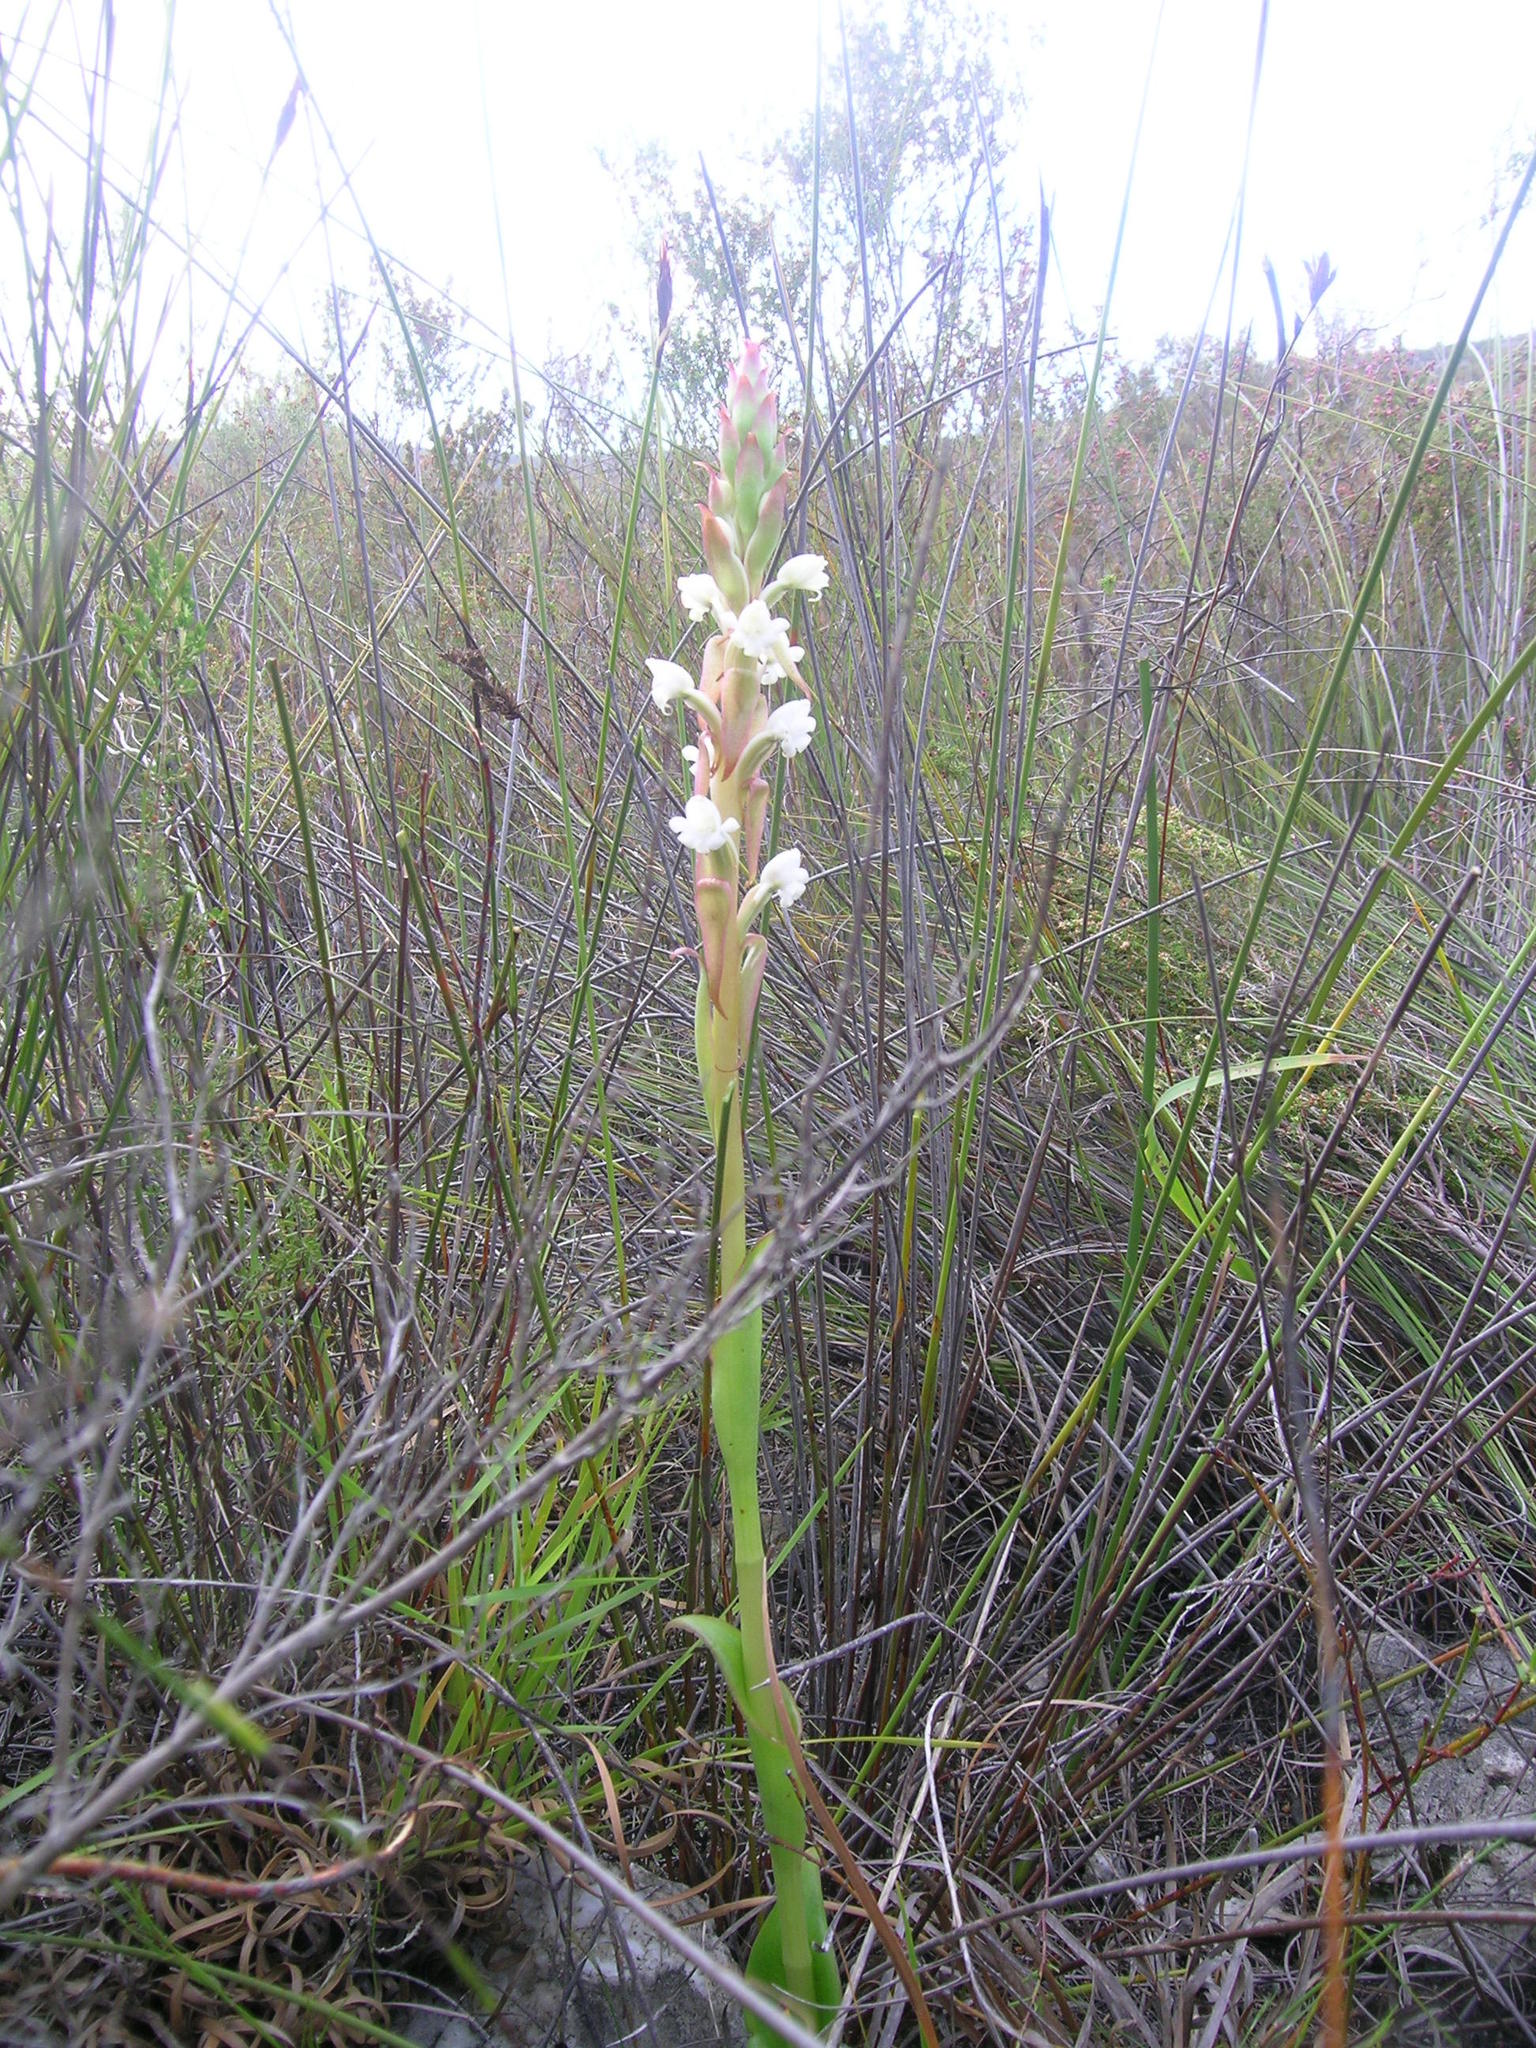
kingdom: Plantae
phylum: Tracheophyta
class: Liliopsida
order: Asparagales
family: Orchidaceae
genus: Satyrium
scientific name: Satyrium acuminatum
